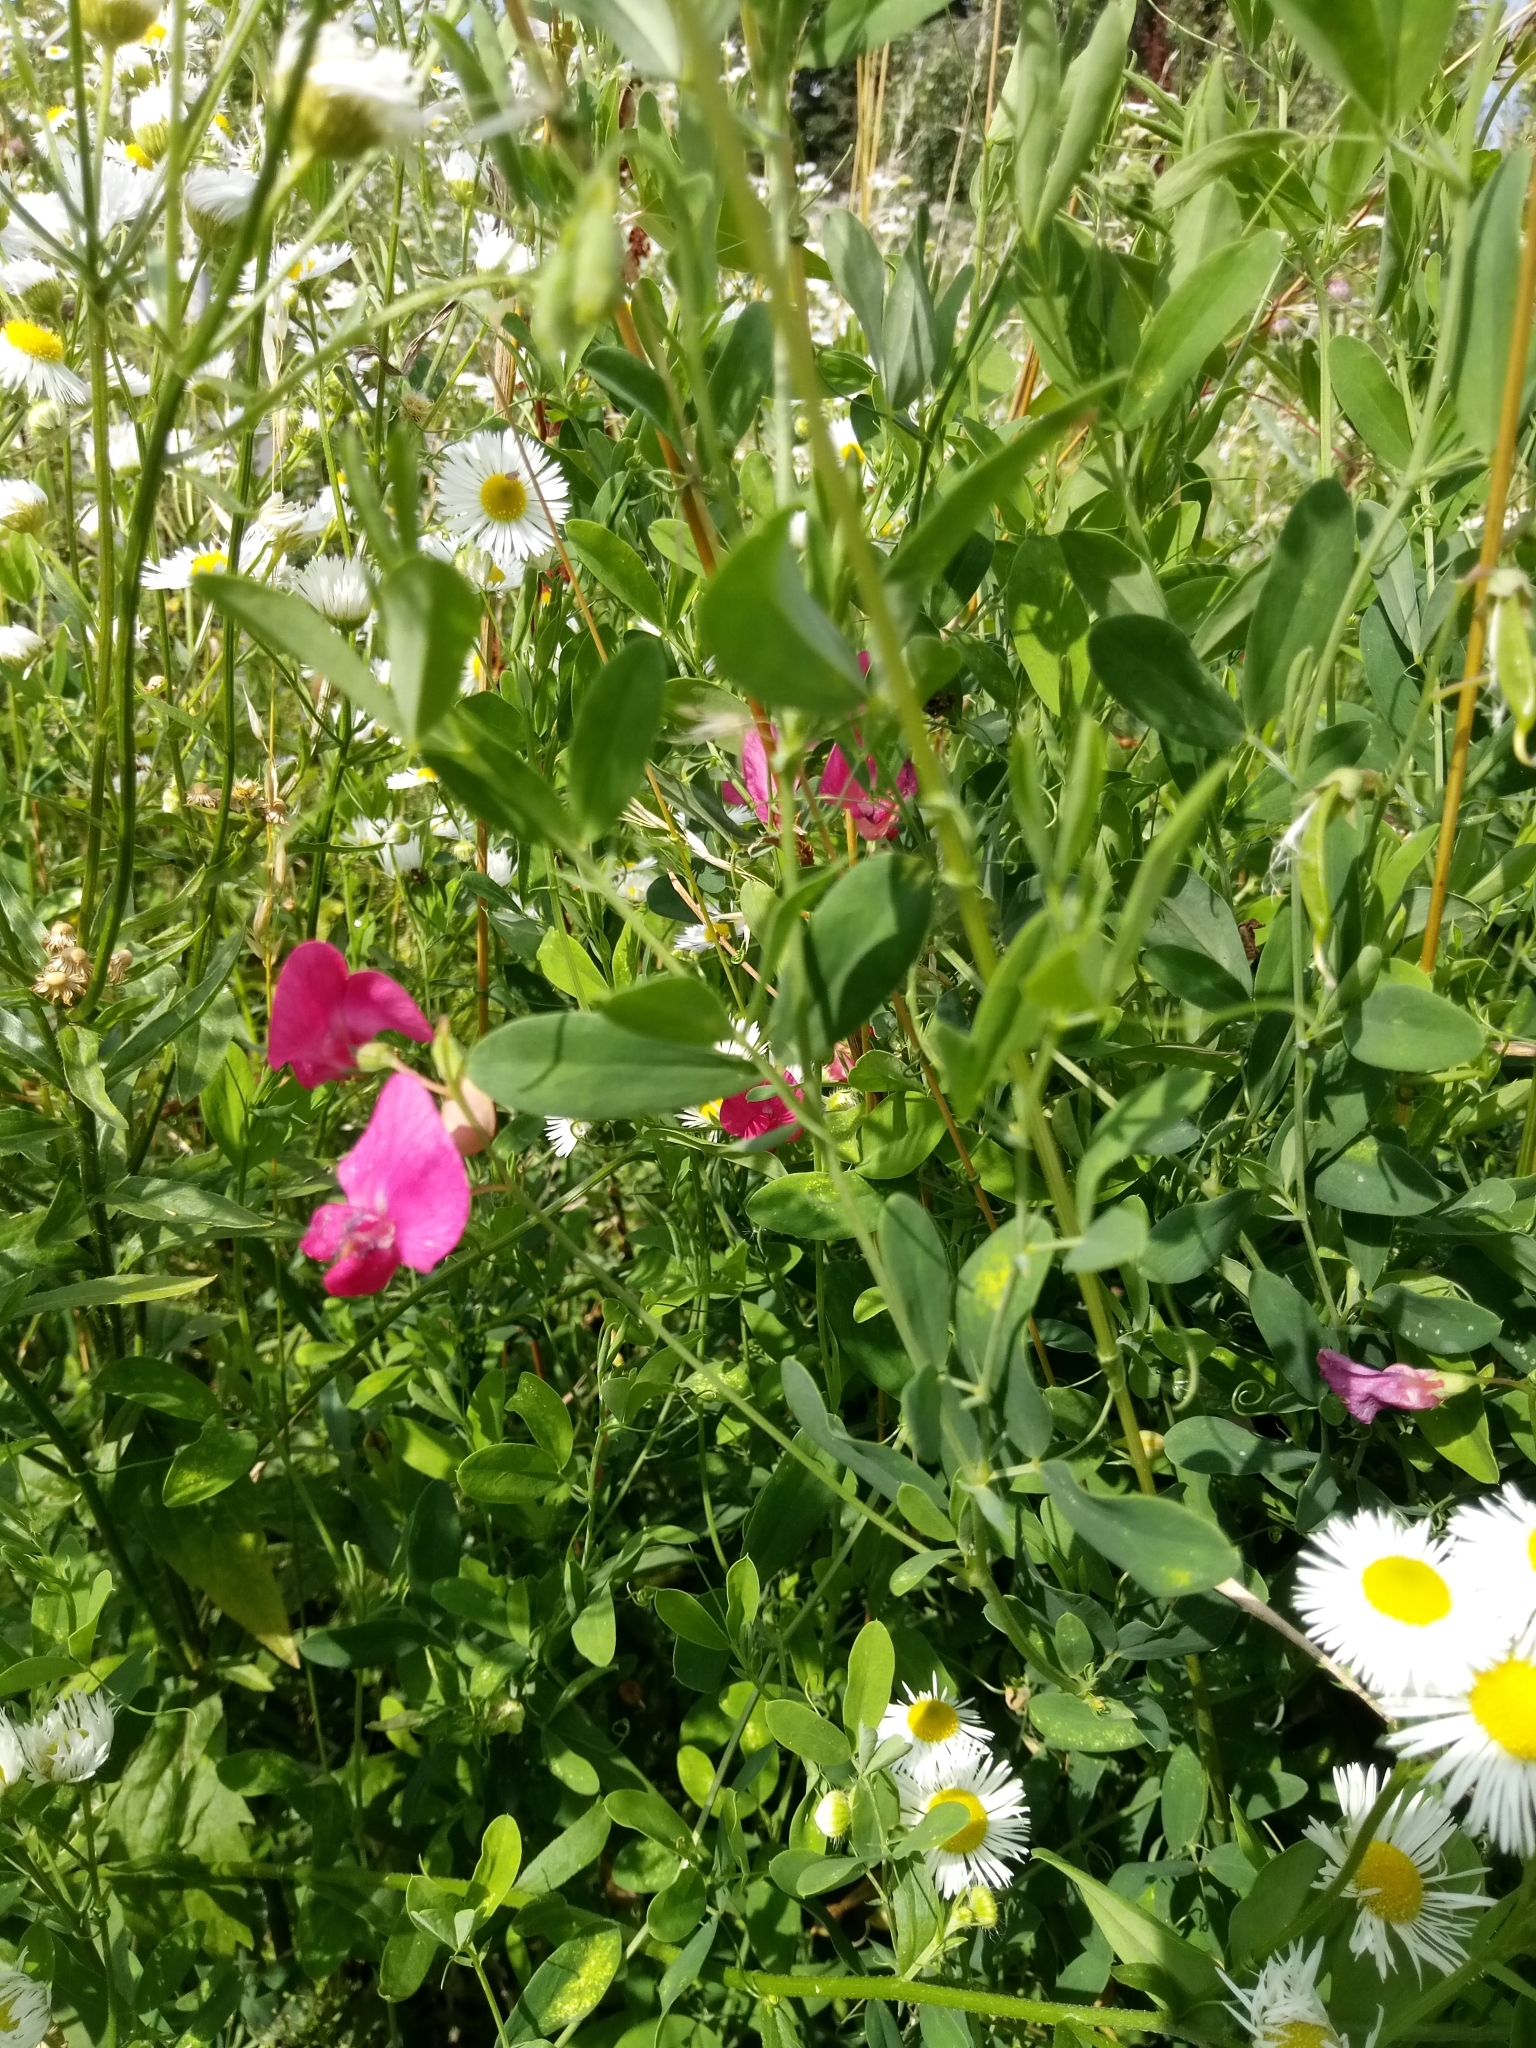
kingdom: Plantae
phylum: Tracheophyta
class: Magnoliopsida
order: Fabales
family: Fabaceae
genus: Lathyrus
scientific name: Lathyrus tuberosus
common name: Tuberous pea
